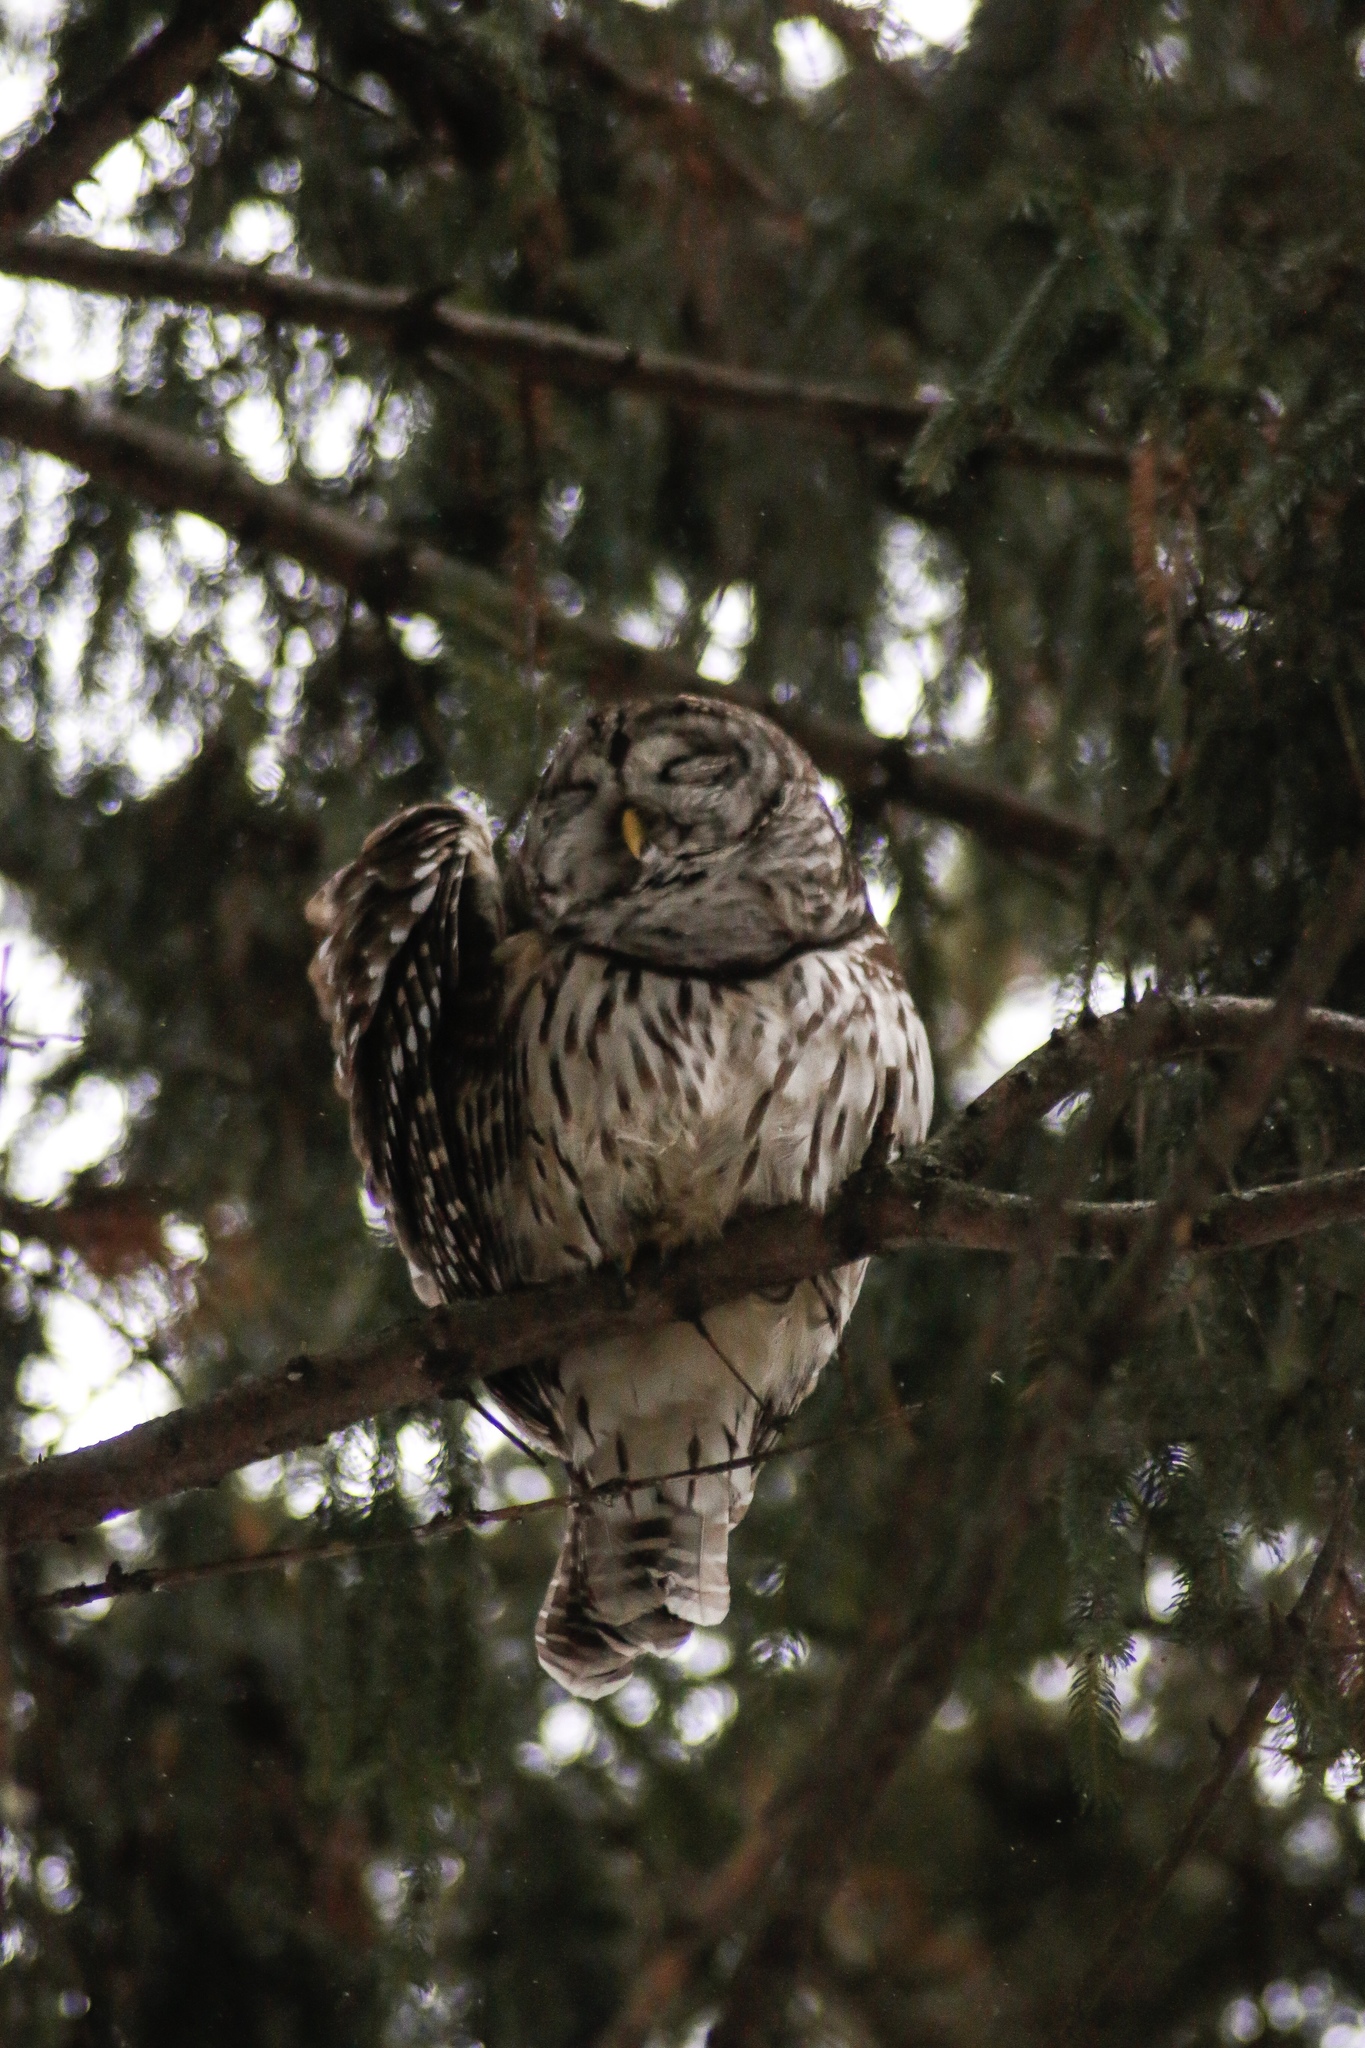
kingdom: Animalia
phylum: Chordata
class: Aves
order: Strigiformes
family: Strigidae
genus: Strix
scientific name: Strix varia
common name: Barred owl
